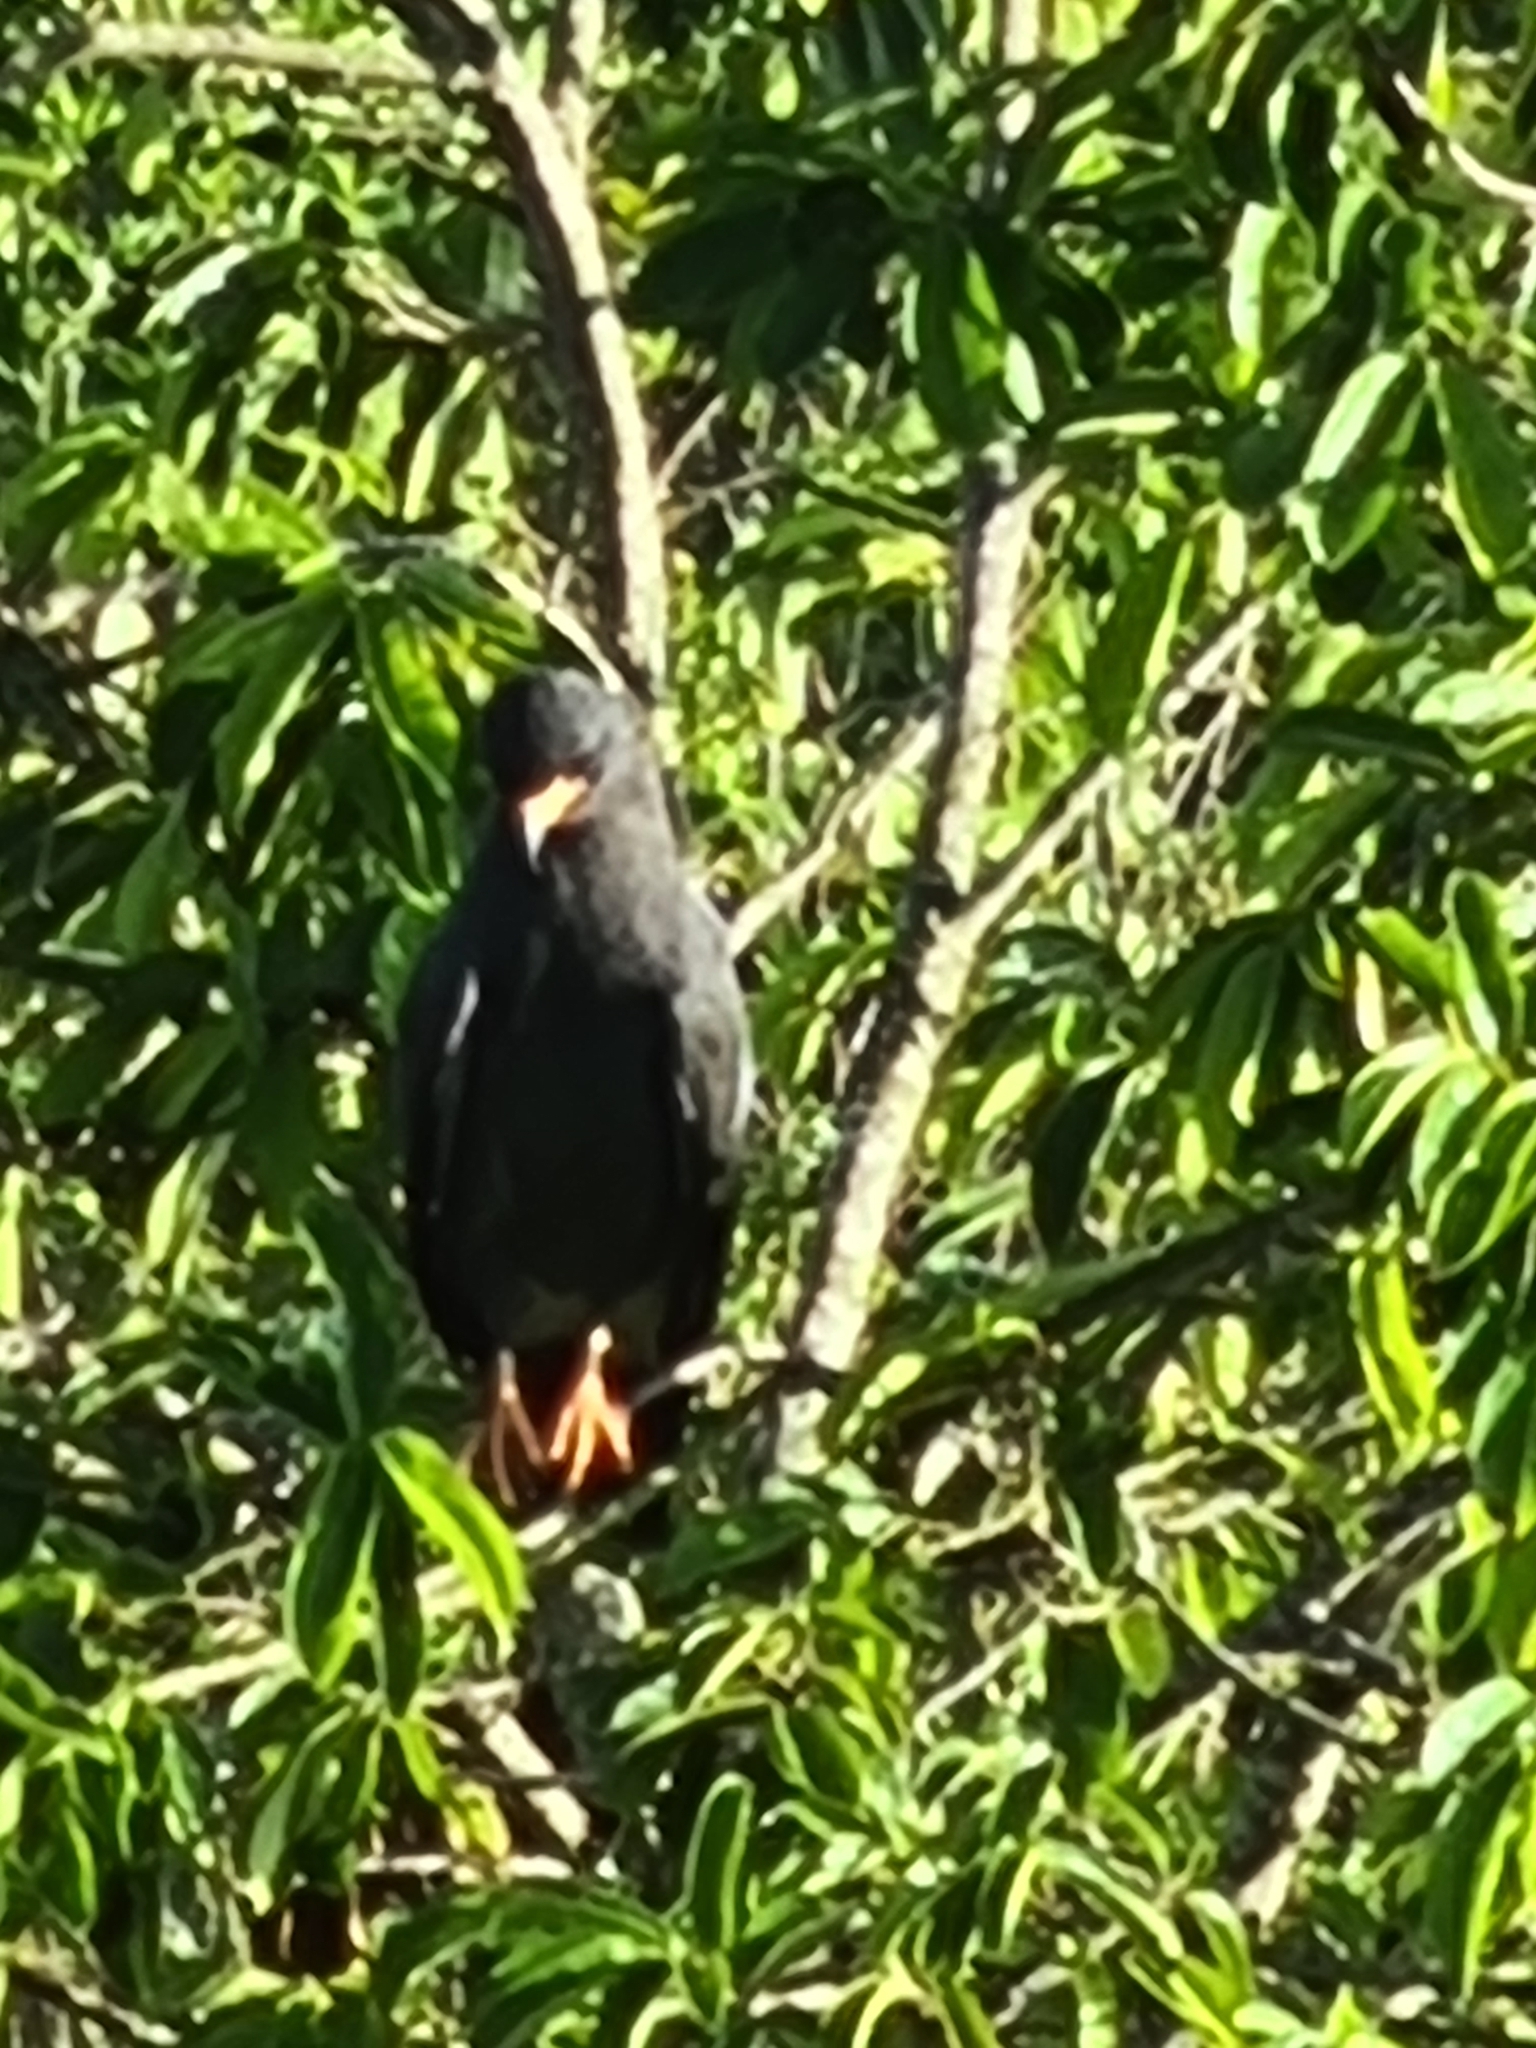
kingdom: Animalia
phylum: Chordata
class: Aves
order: Accipitriformes
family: Accipitridae
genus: Buteogallus
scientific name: Buteogallus anthracinus
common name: Common black hawk
